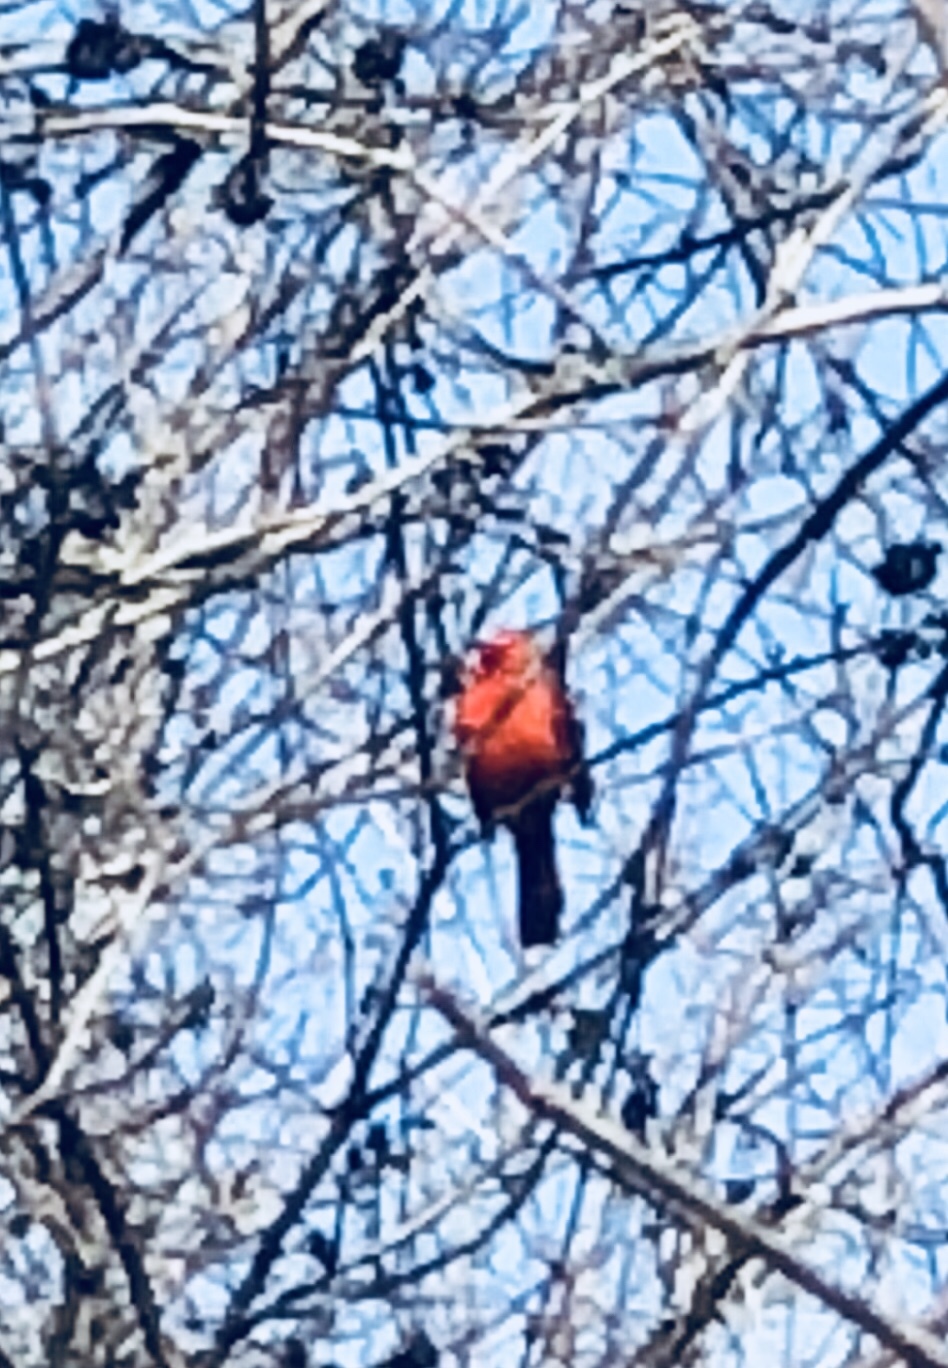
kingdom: Animalia
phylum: Chordata
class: Aves
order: Passeriformes
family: Cardinalidae
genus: Cardinalis
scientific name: Cardinalis cardinalis
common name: Northern cardinal
